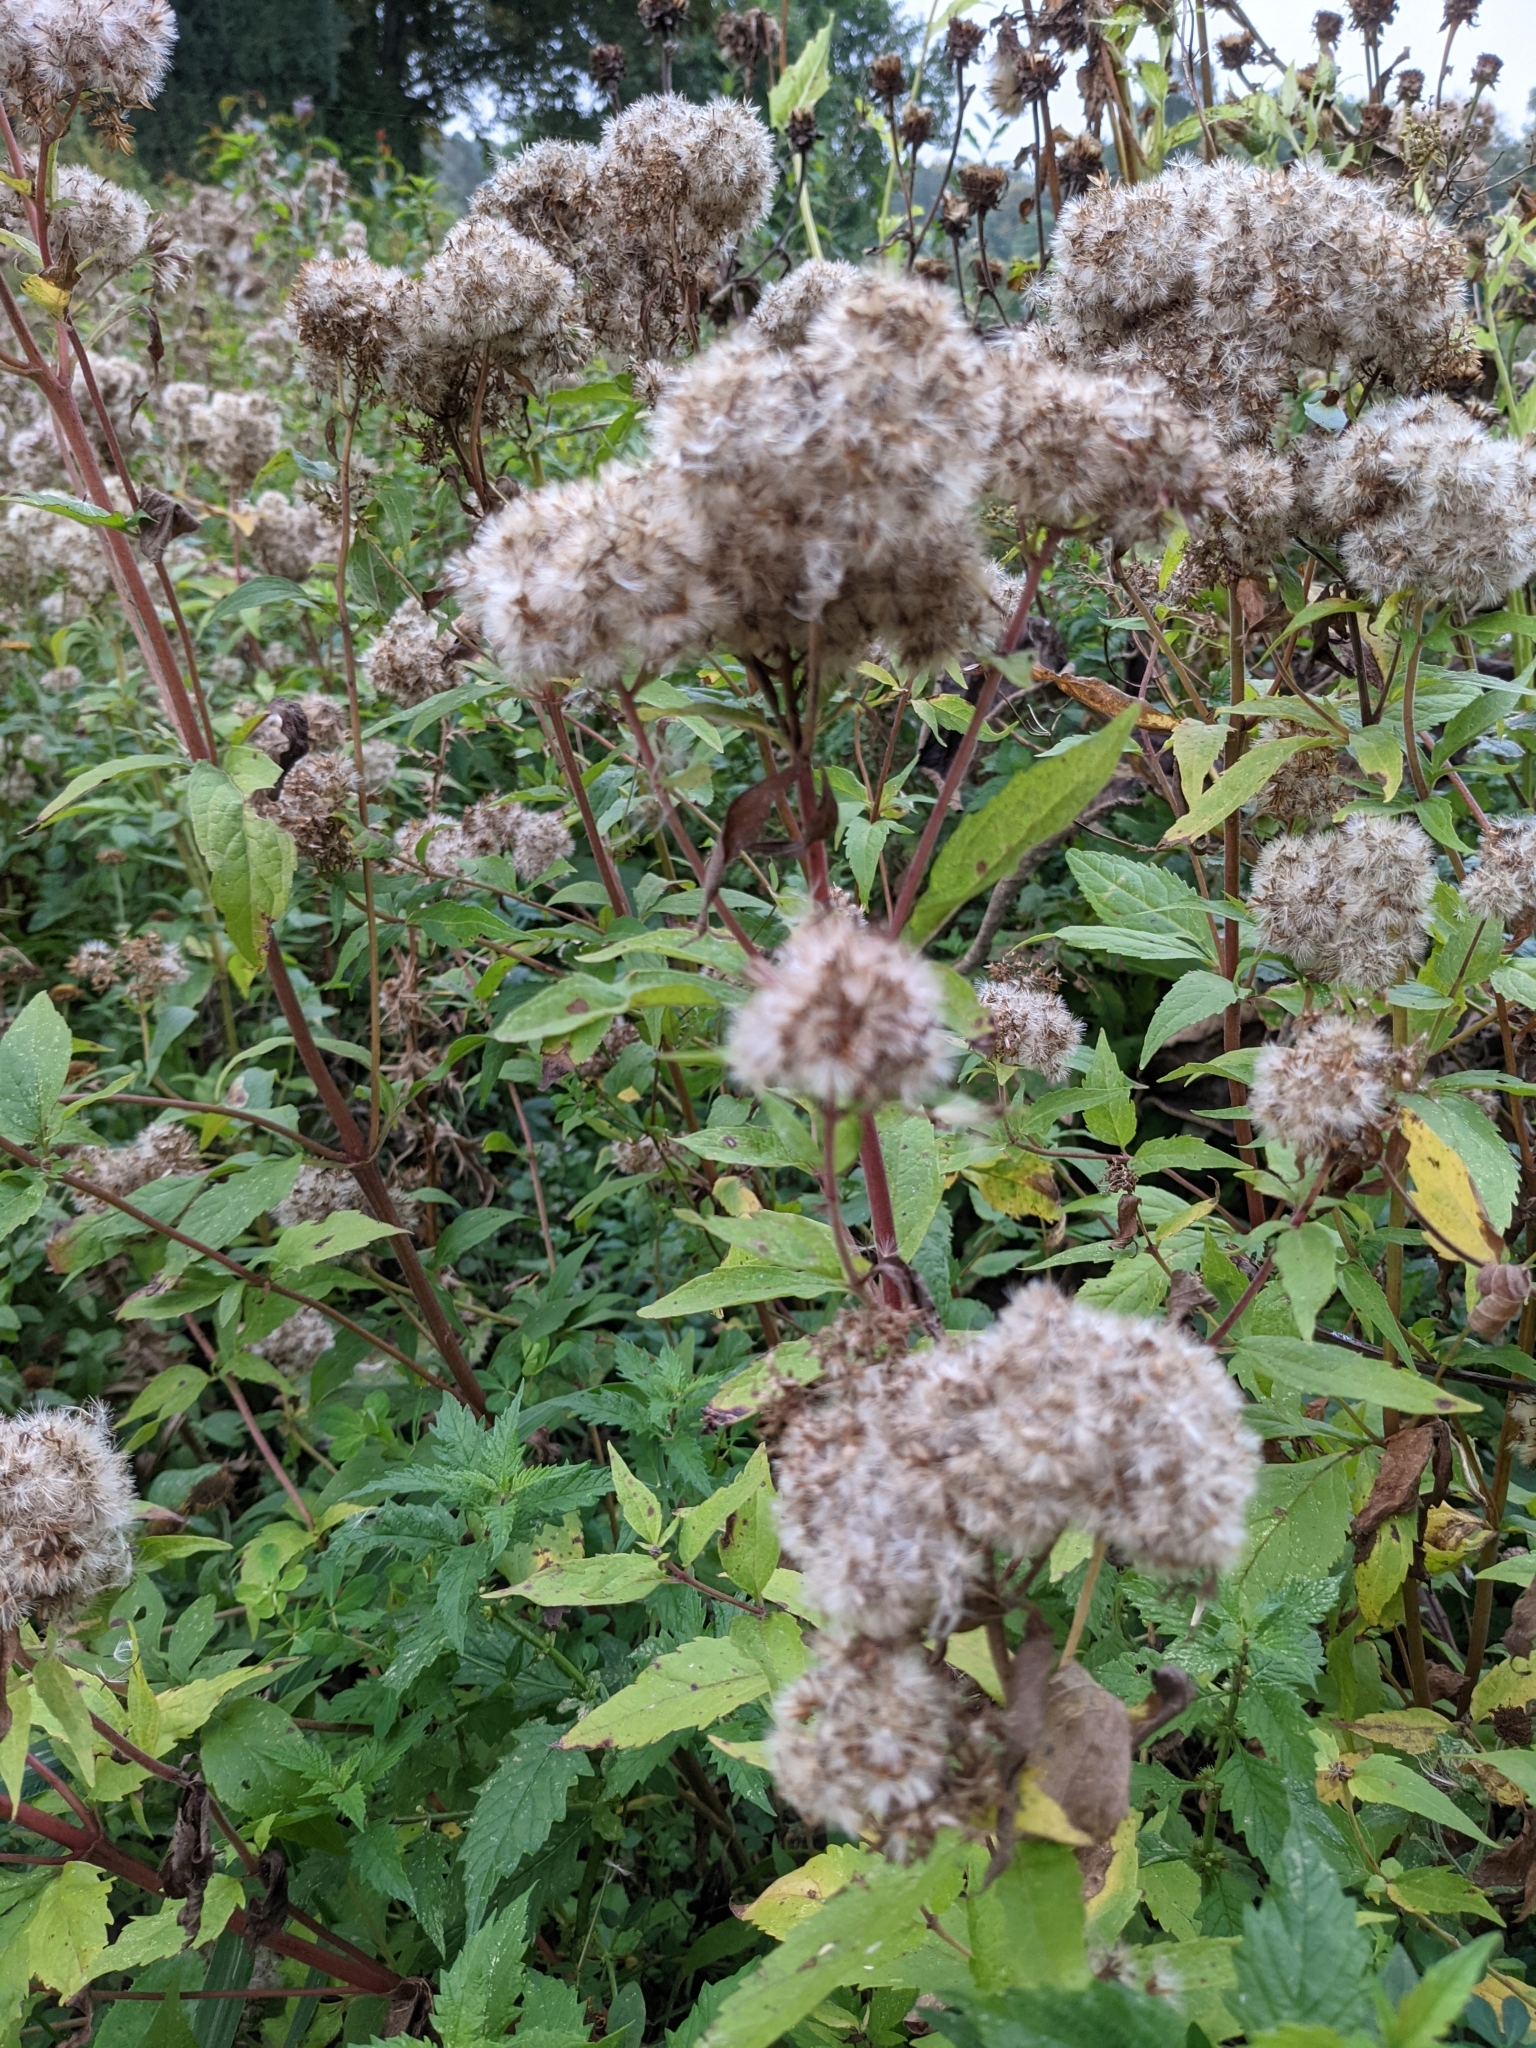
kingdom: Plantae
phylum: Tracheophyta
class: Magnoliopsida
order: Asterales
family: Asteraceae
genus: Eupatorium
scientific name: Eupatorium cannabinum
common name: Hemp-agrimony
